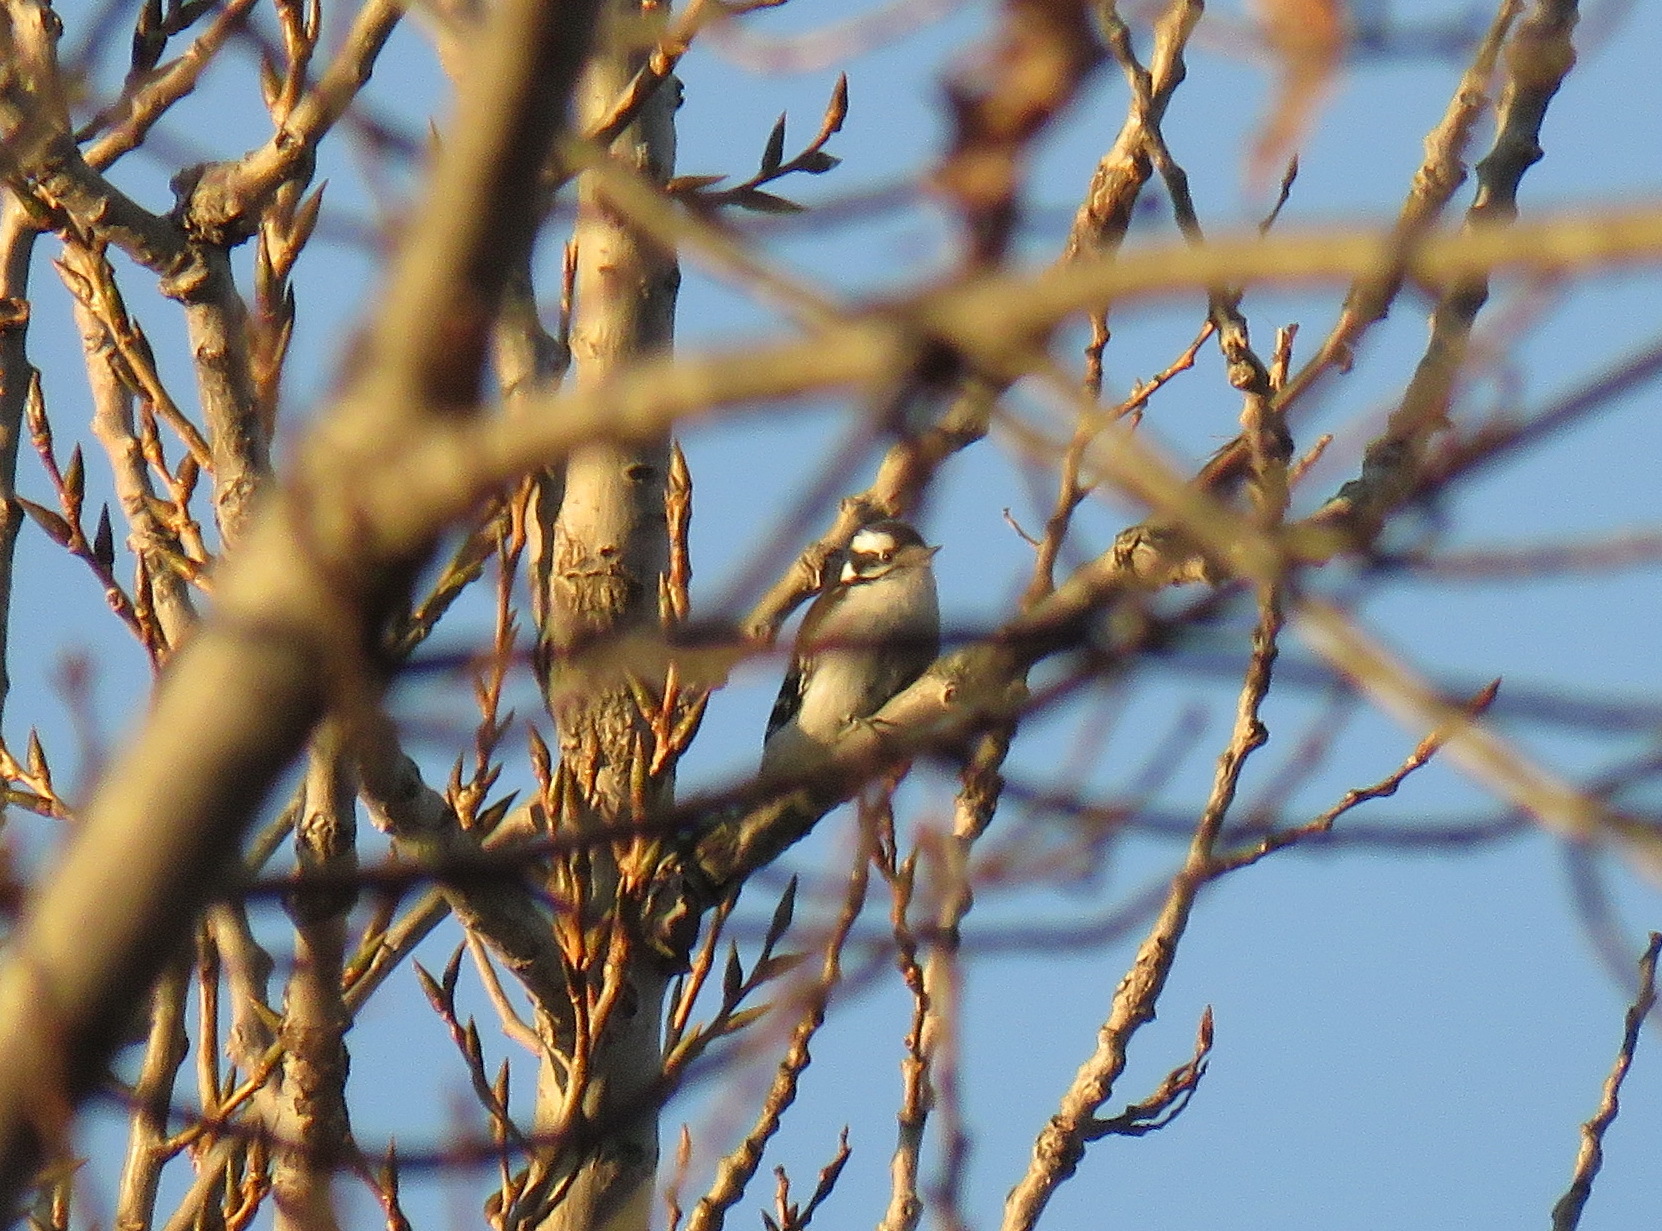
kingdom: Animalia
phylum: Chordata
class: Aves
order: Piciformes
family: Picidae
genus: Dryobates
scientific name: Dryobates pubescens
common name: Downy woodpecker
